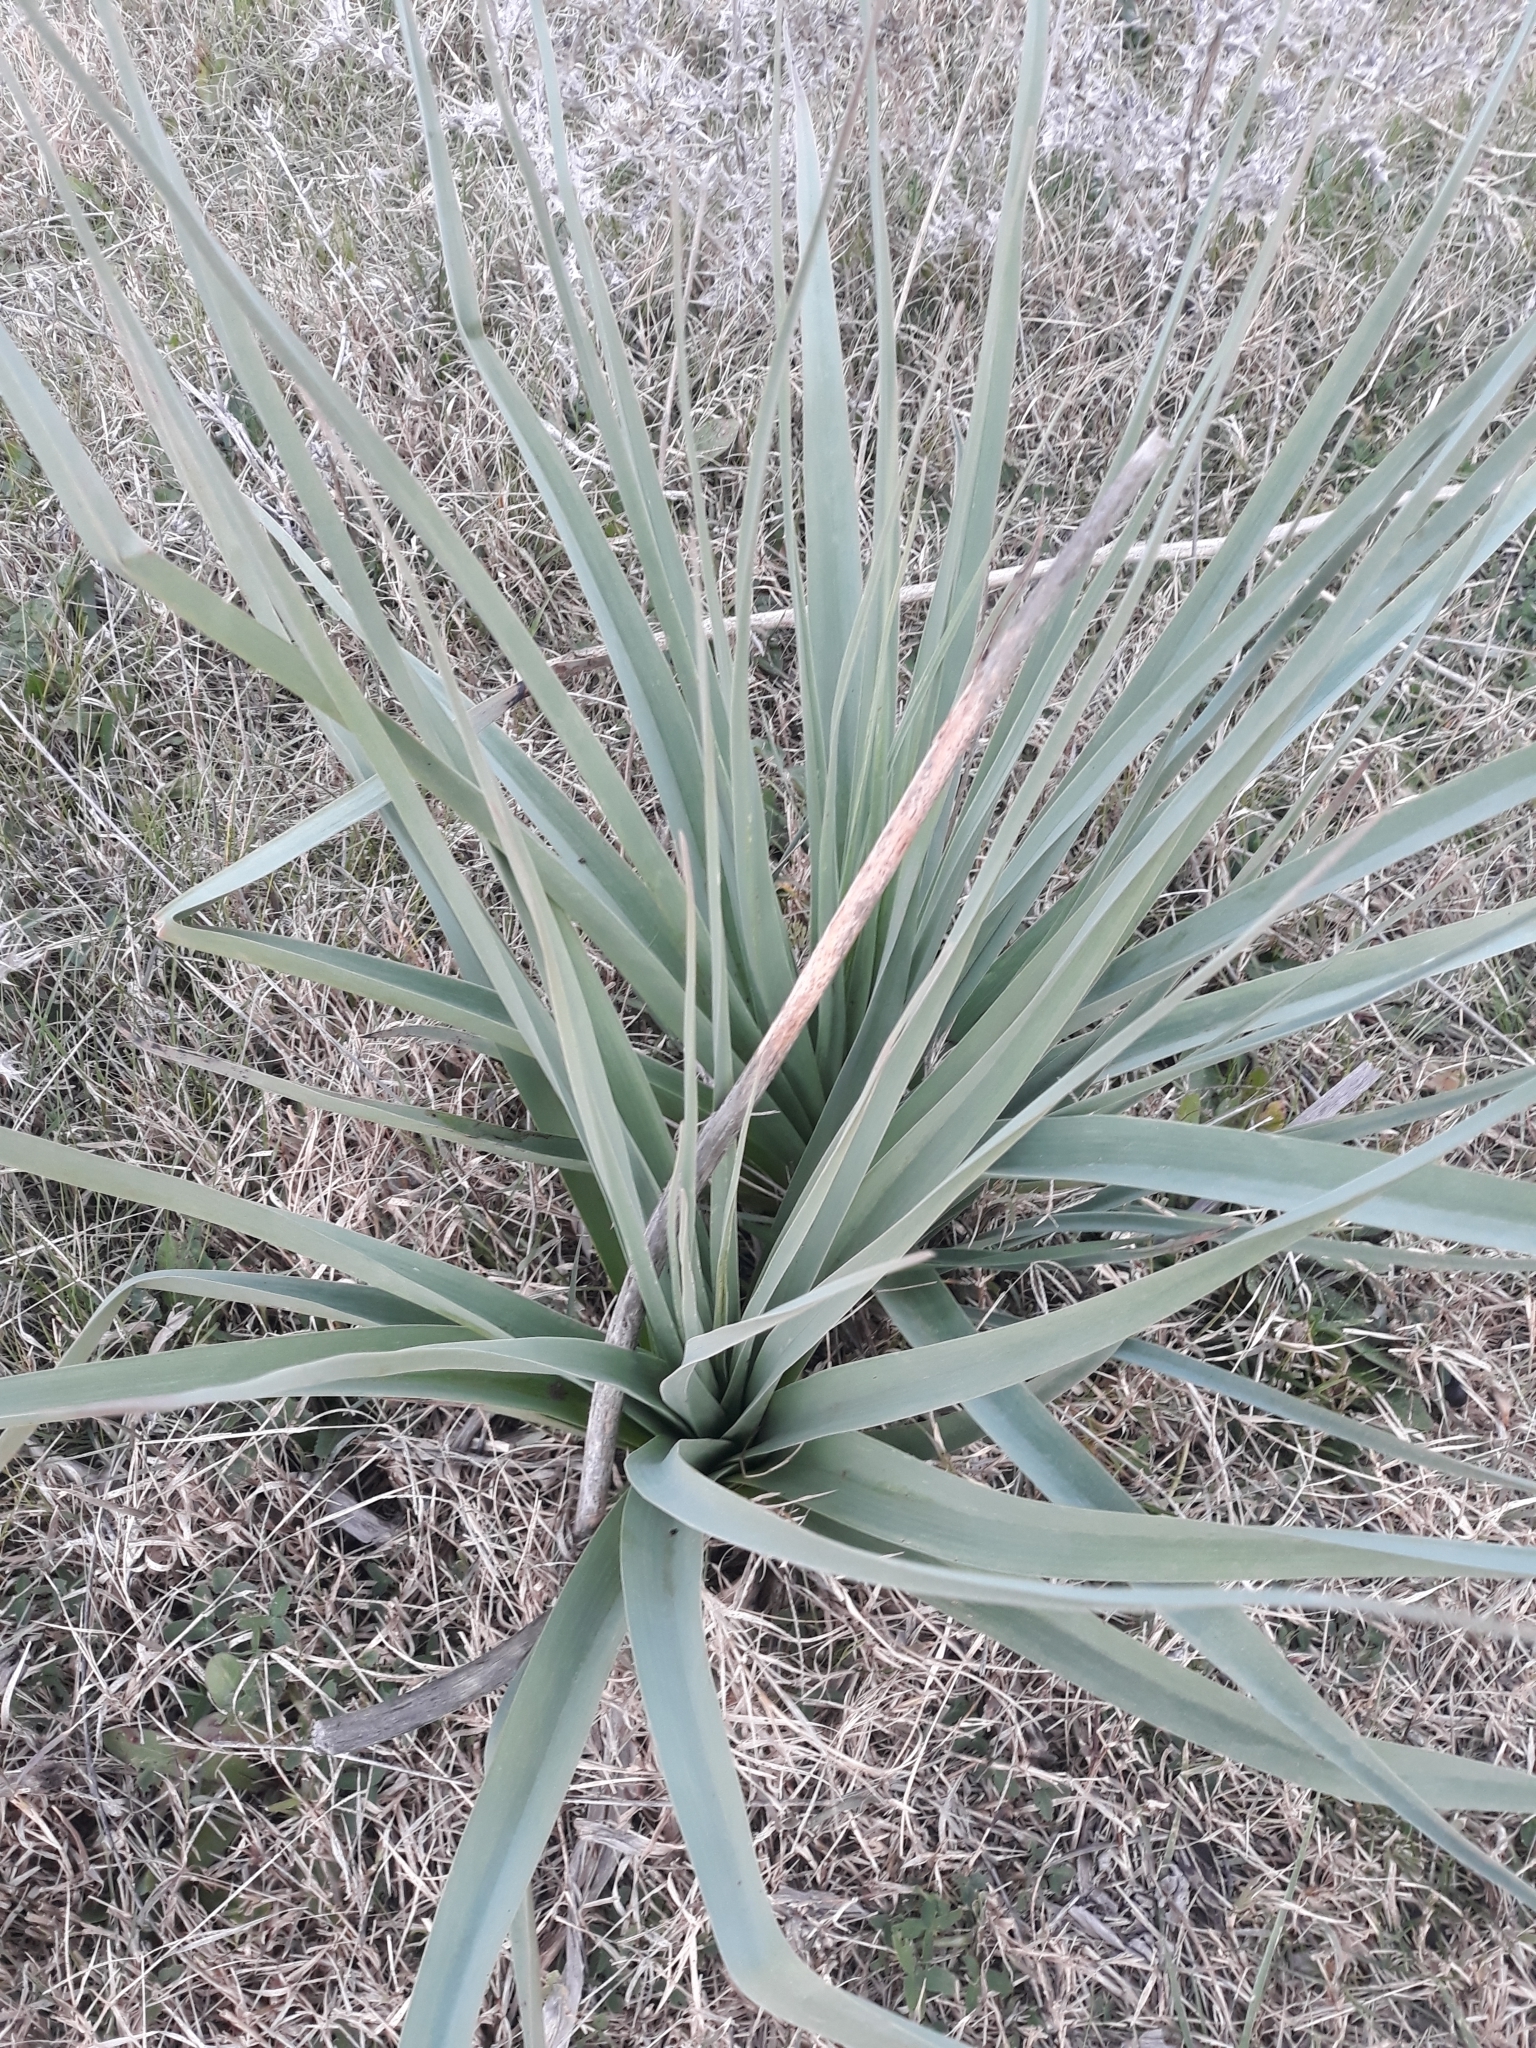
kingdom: Plantae
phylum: Tracheophyta
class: Liliopsida
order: Asparagales
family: Asphodelaceae
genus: Asphodelus
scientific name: Asphodelus ramosus
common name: Silverrod
